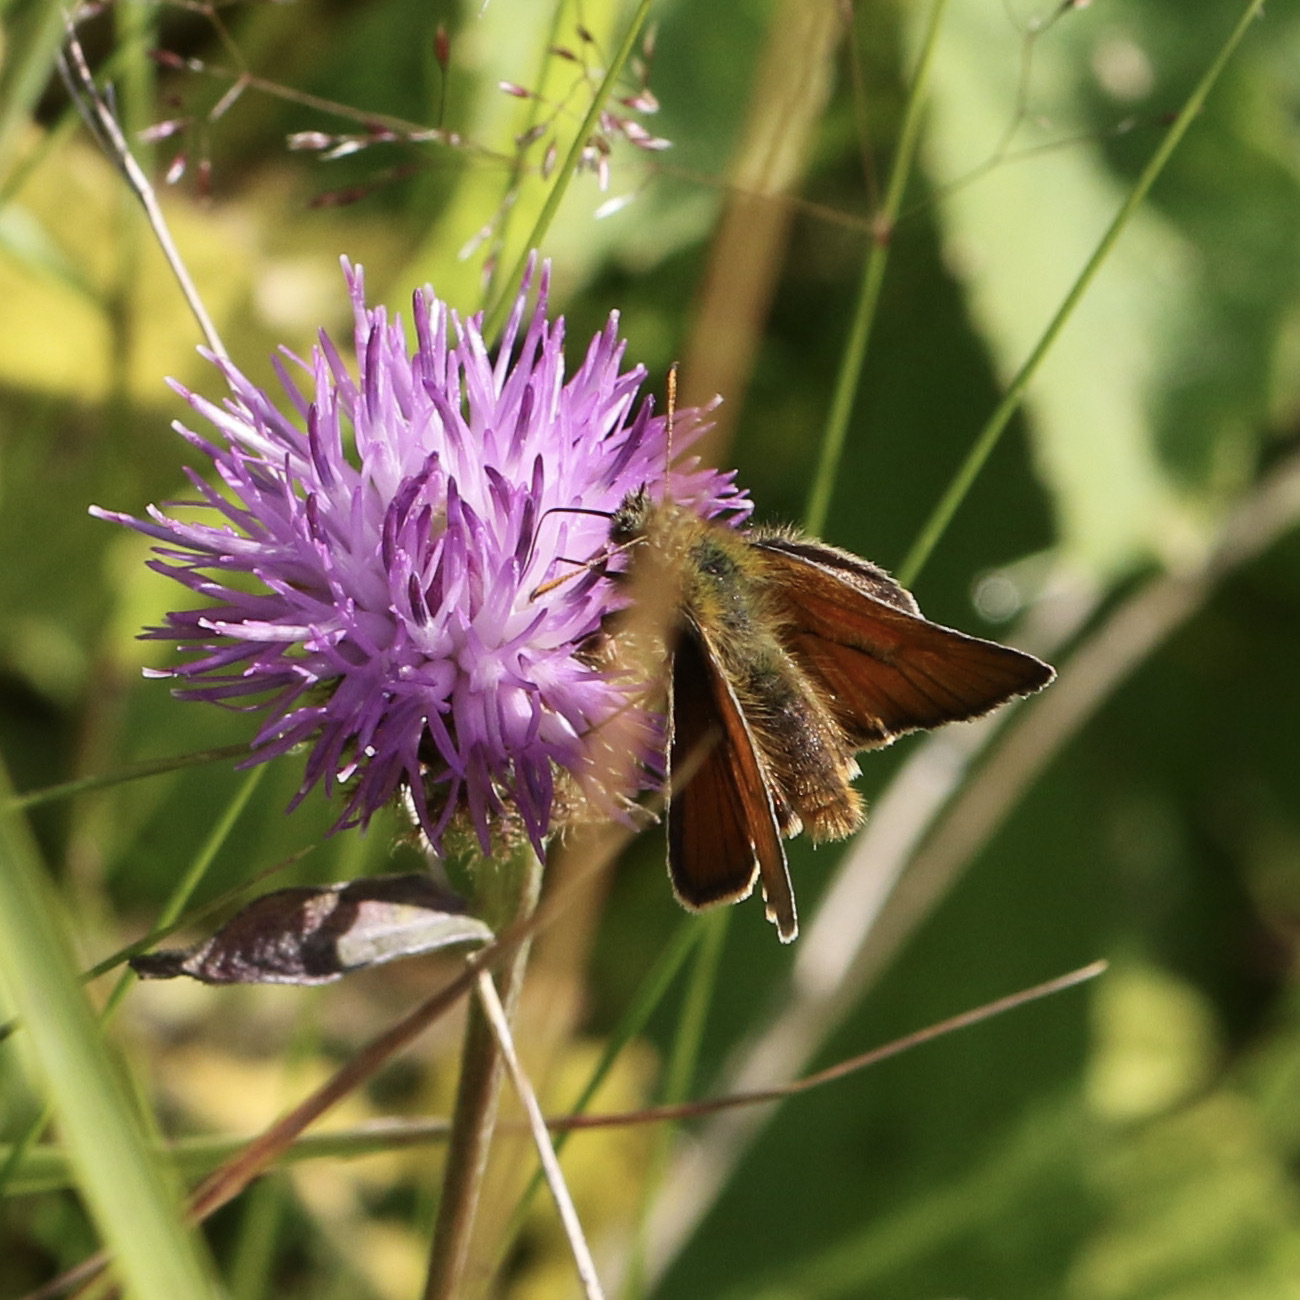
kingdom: Animalia
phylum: Arthropoda
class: Insecta
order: Lepidoptera
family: Hesperiidae
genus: Thymelicus
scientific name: Thymelicus sylvestris
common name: Small skipper
